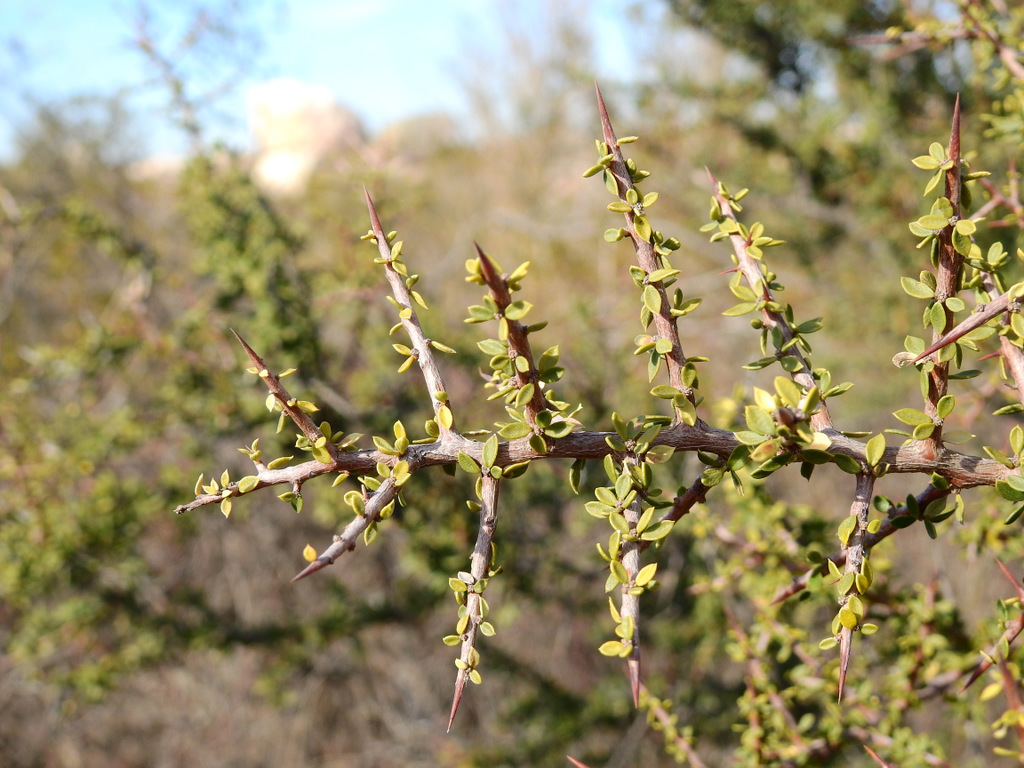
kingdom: Plantae
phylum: Tracheophyta
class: Magnoliopsida
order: Rosales
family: Rhamnaceae
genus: Condalia
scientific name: Condalia microphylla
